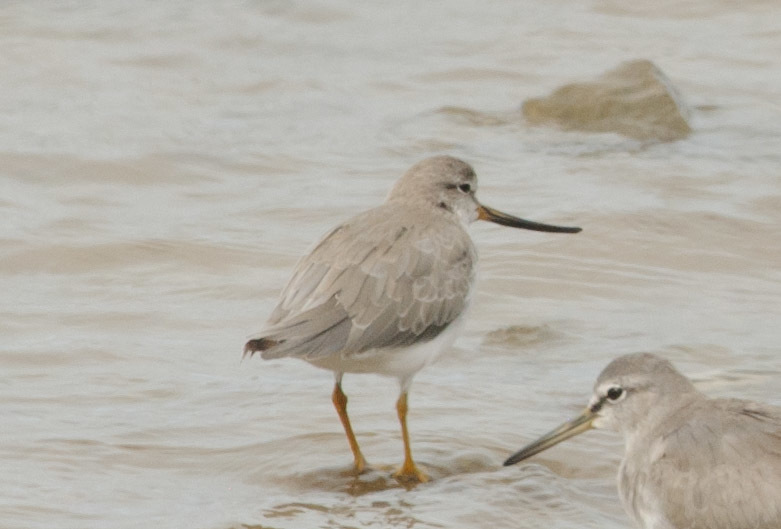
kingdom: Animalia
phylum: Chordata
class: Aves
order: Charadriiformes
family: Scolopacidae
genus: Xenus
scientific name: Xenus cinereus
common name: Terek sandpiper
